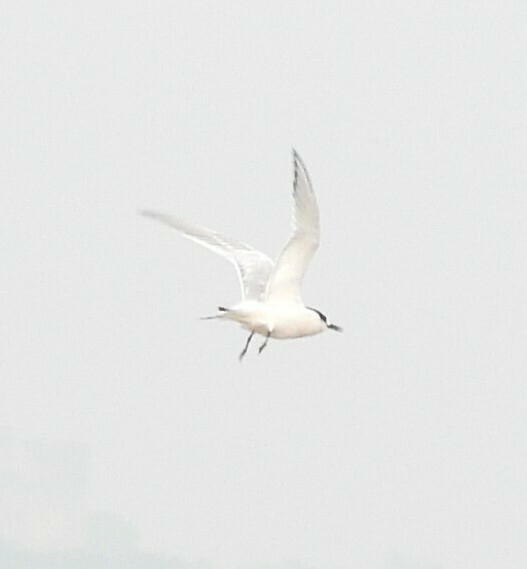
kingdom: Animalia
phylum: Chordata
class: Aves
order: Charadriiformes
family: Laridae
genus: Thalasseus
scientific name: Thalasseus sandvicensis
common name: Sandwich tern
